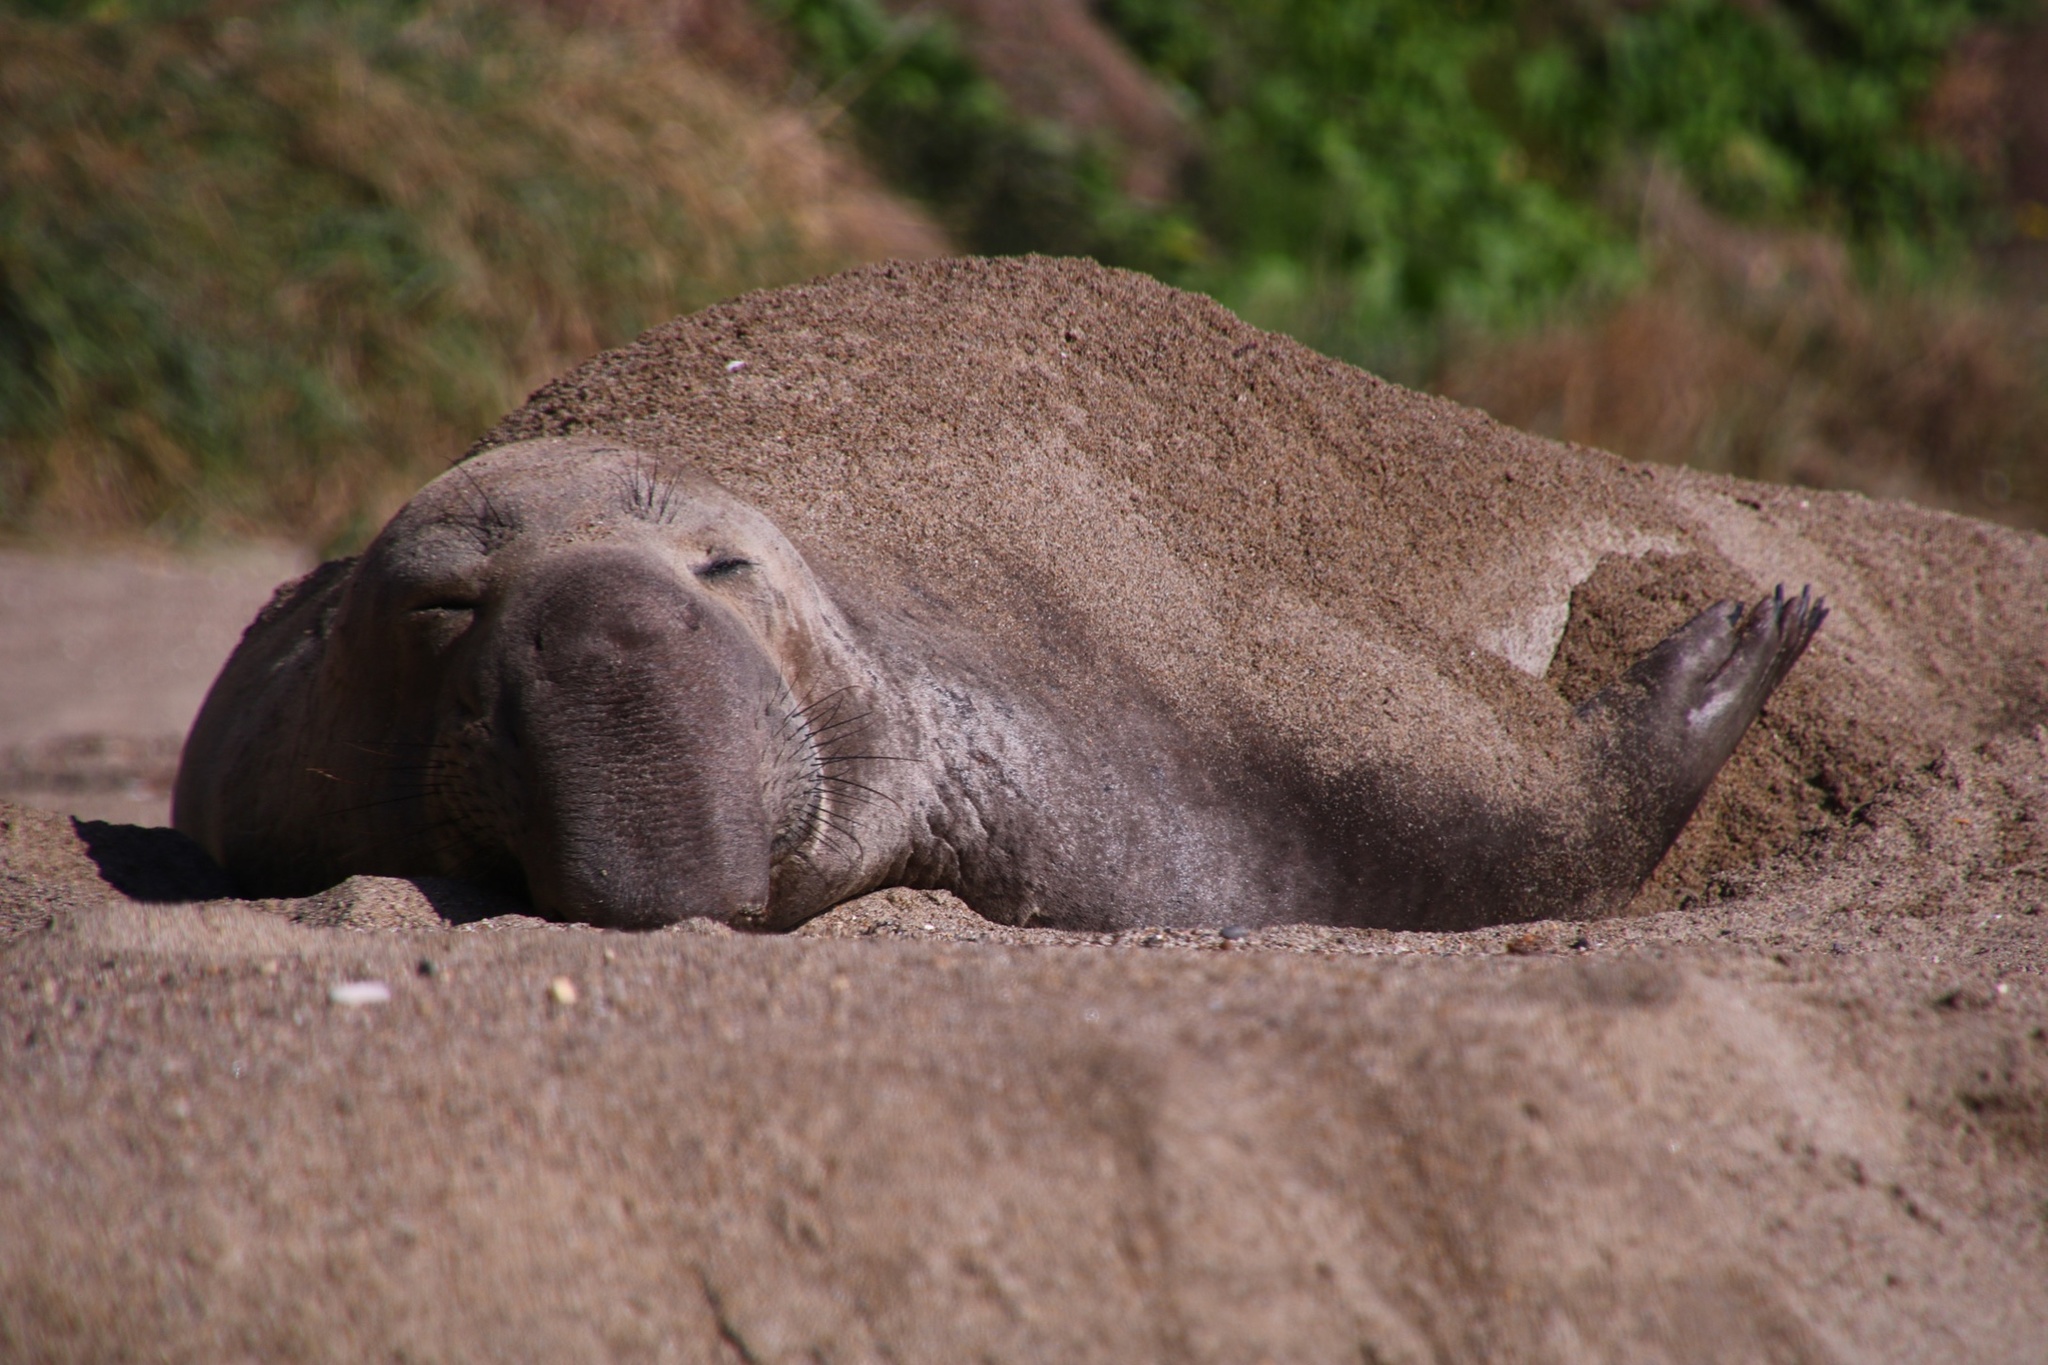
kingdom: Animalia
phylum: Chordata
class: Mammalia
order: Carnivora
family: Phocidae
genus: Mirounga
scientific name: Mirounga angustirostris
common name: Northern elephant seal
